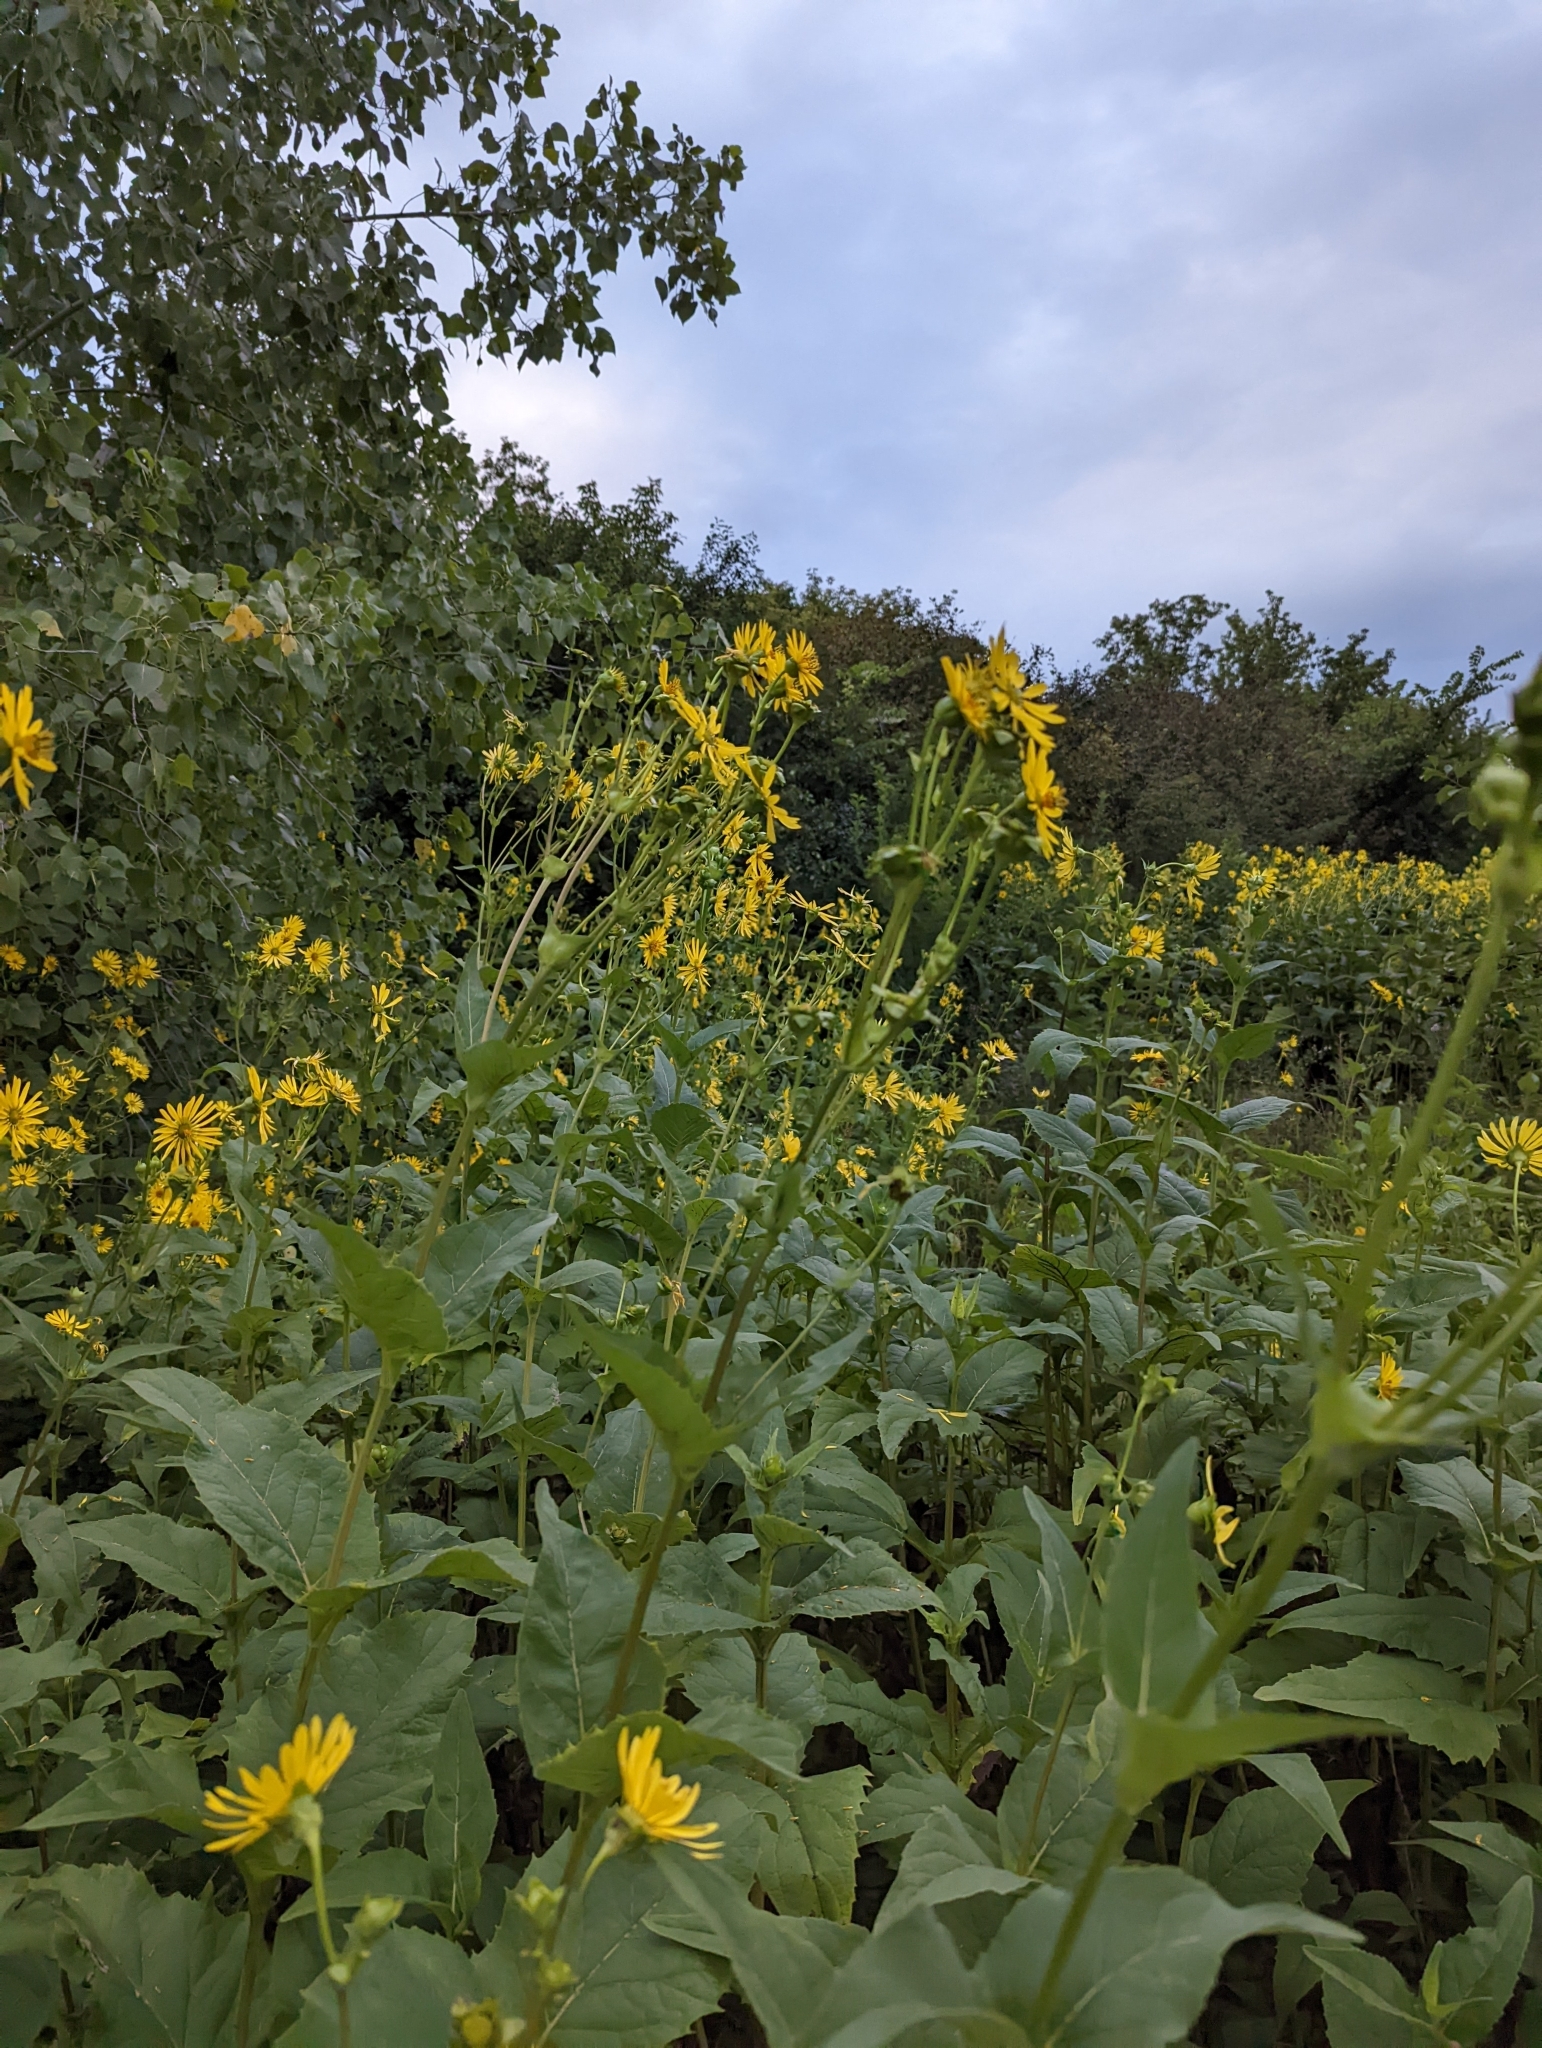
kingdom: Plantae
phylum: Tracheophyta
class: Magnoliopsida
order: Asterales
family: Asteraceae
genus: Silphium
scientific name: Silphium perfoliatum
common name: Cup-plant
